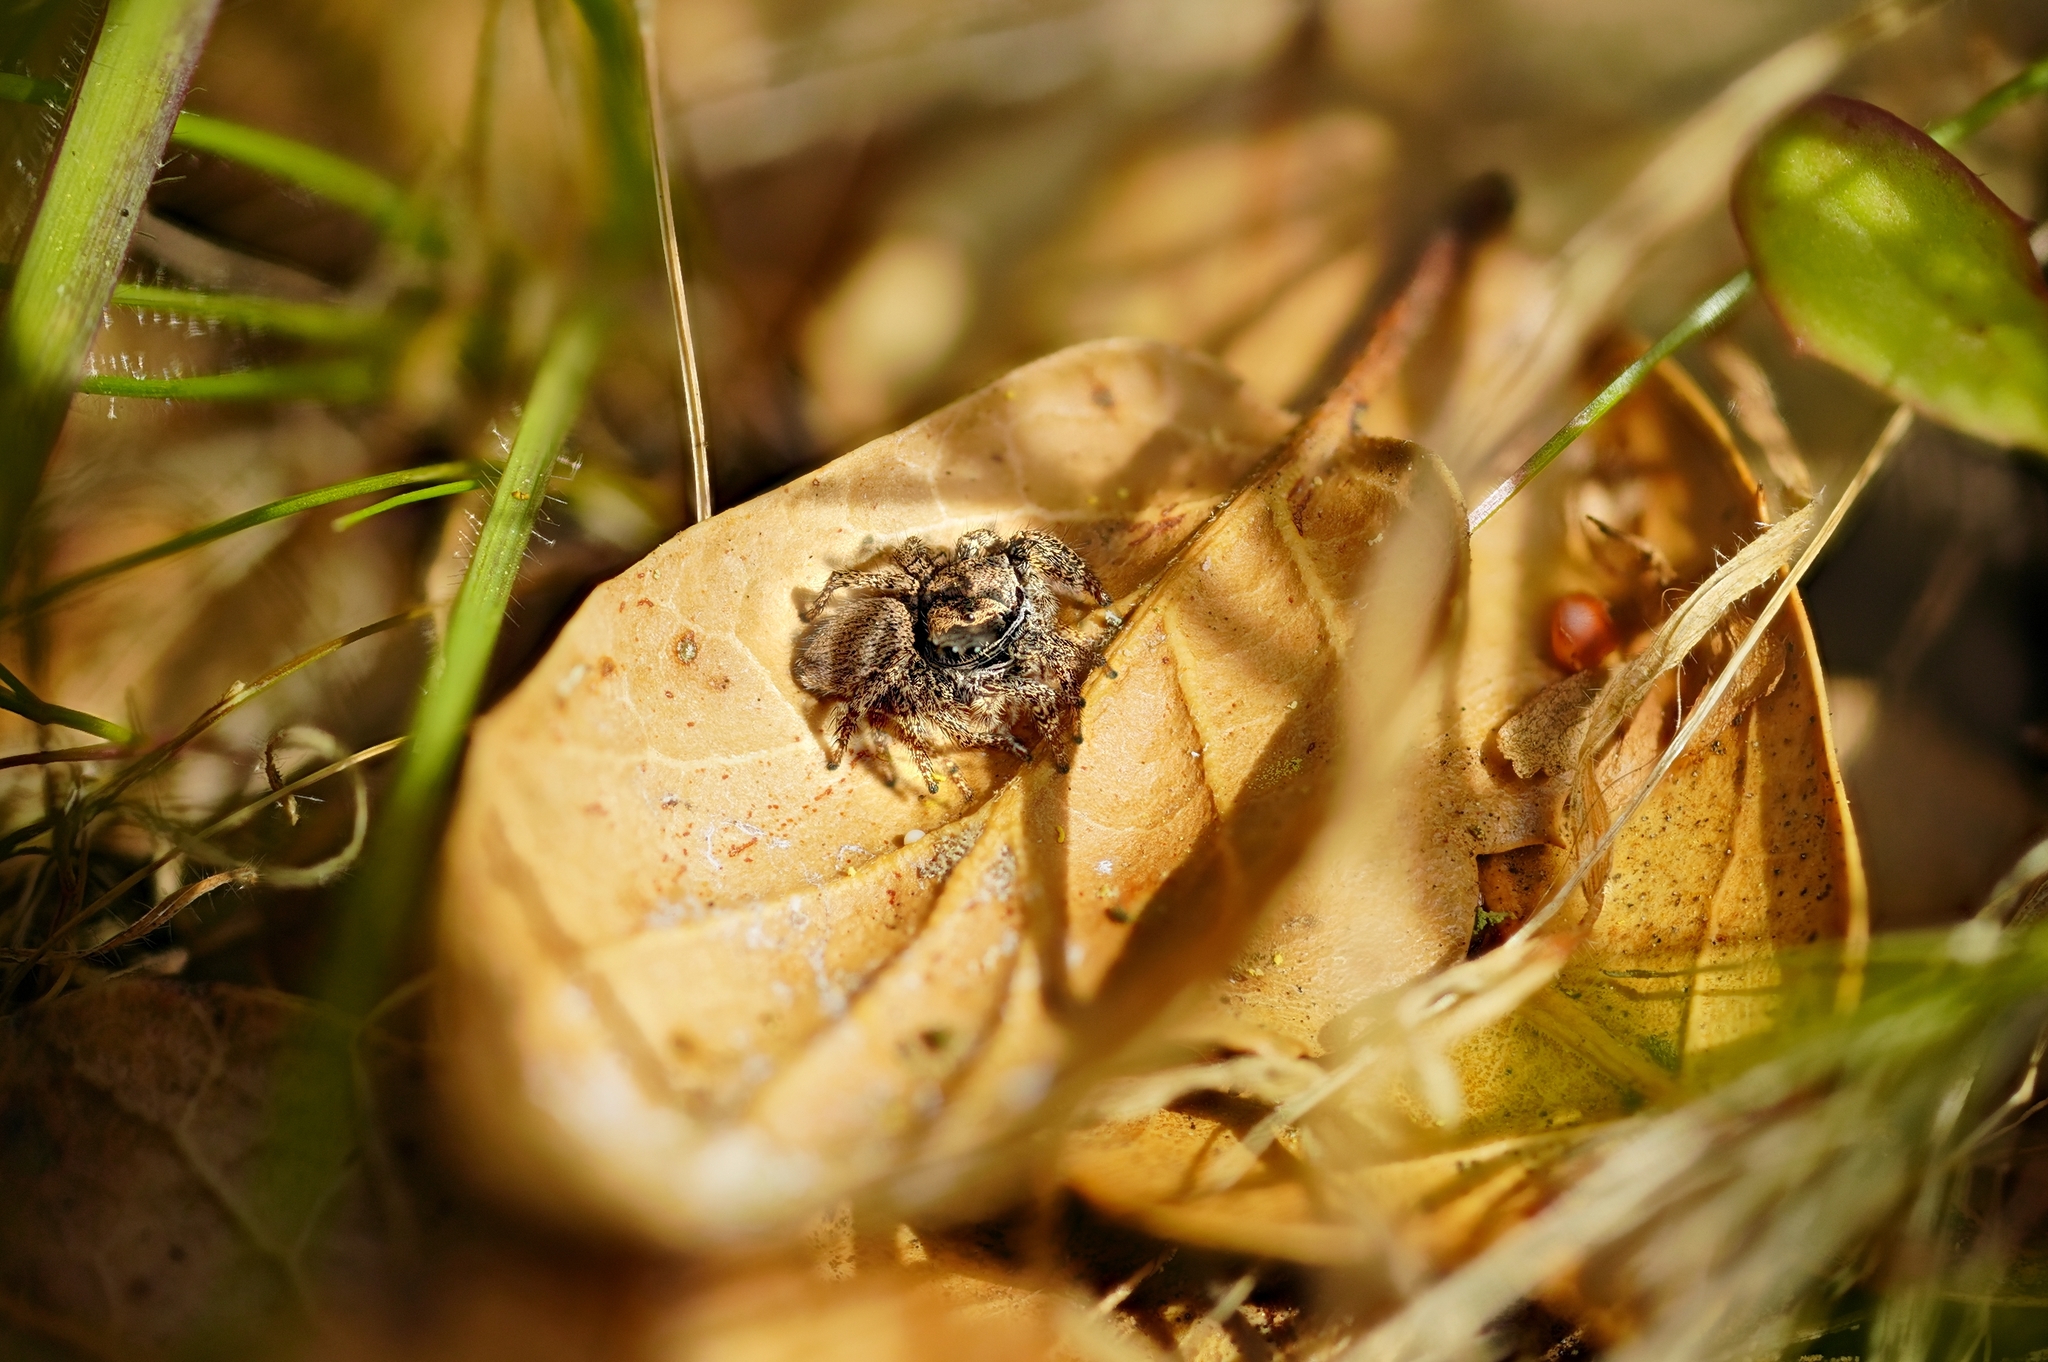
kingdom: Animalia
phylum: Arthropoda
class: Arachnida
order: Araneae
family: Salticidae
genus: Habronattus
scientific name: Habronattus oregonensis
